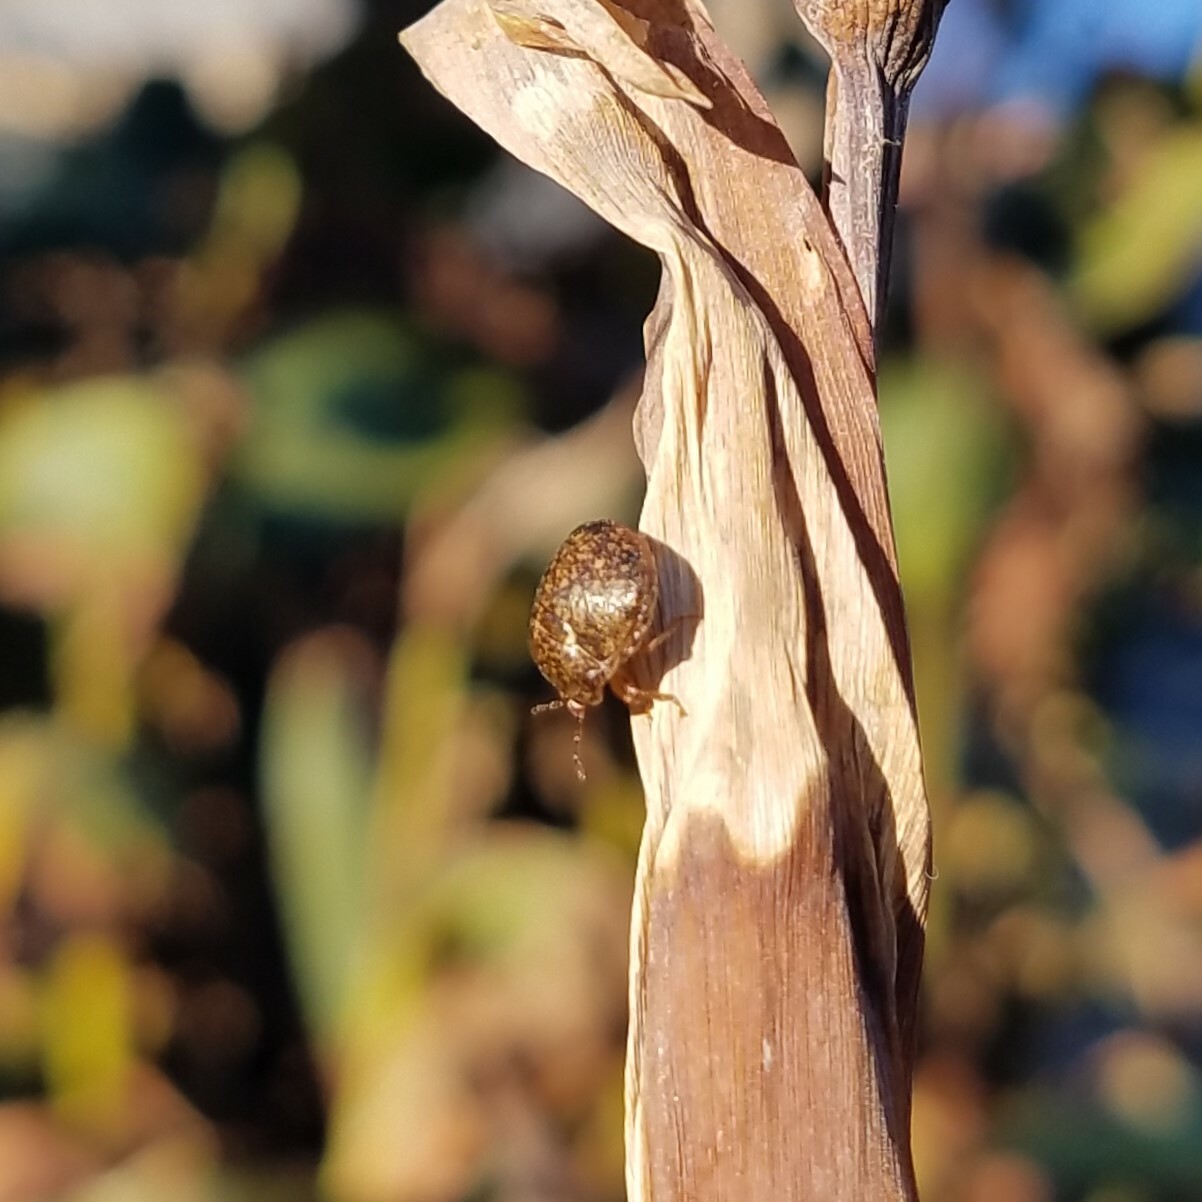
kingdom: Animalia
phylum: Arthropoda
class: Insecta
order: Hemiptera
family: Plataspidae
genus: Megacopta
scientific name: Megacopta cribraria
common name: Bean plataspid
